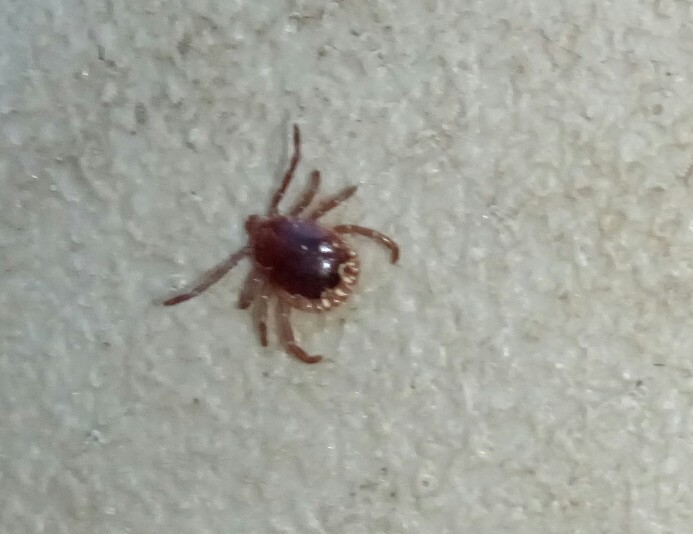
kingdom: Animalia
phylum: Arthropoda
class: Arachnida
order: Ixodida
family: Ixodidae
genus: Amblyomma
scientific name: Amblyomma americanum
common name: Lone star tick
